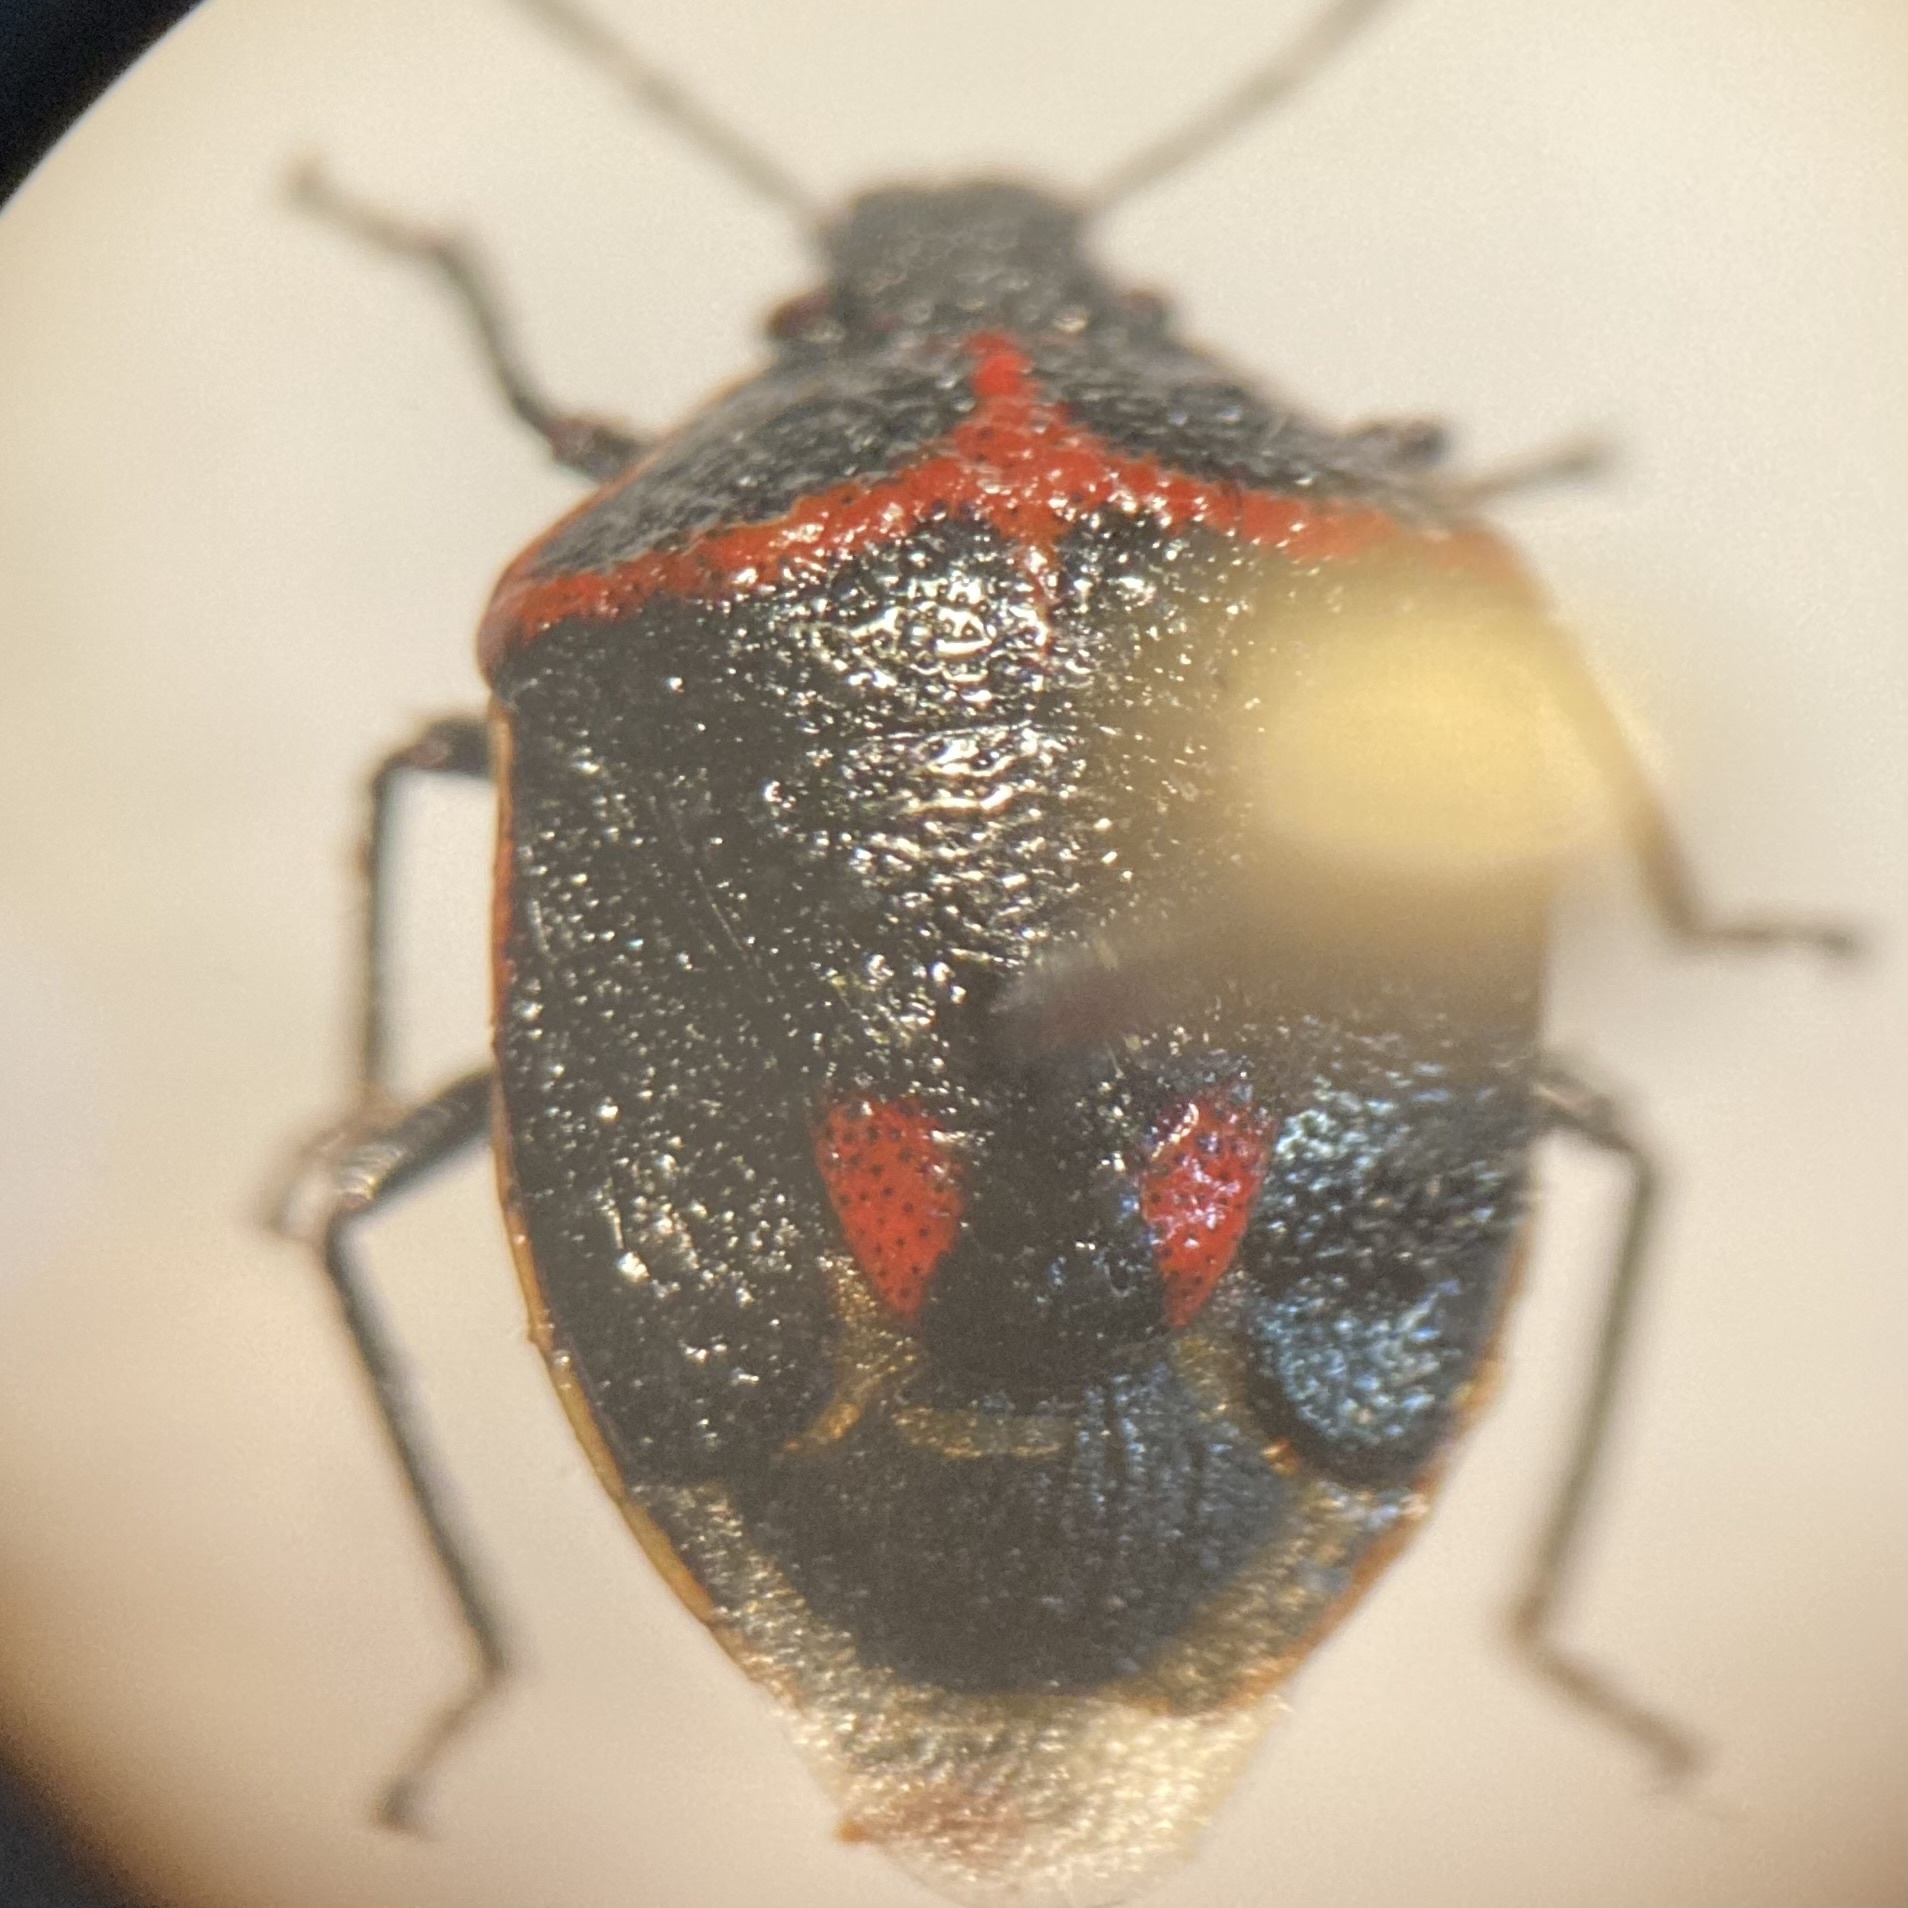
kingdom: Animalia
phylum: Arthropoda
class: Insecta
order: Hemiptera
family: Pentatomidae
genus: Cosmopepla
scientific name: Cosmopepla lintneriana
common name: Twice-stabbed stink bug
